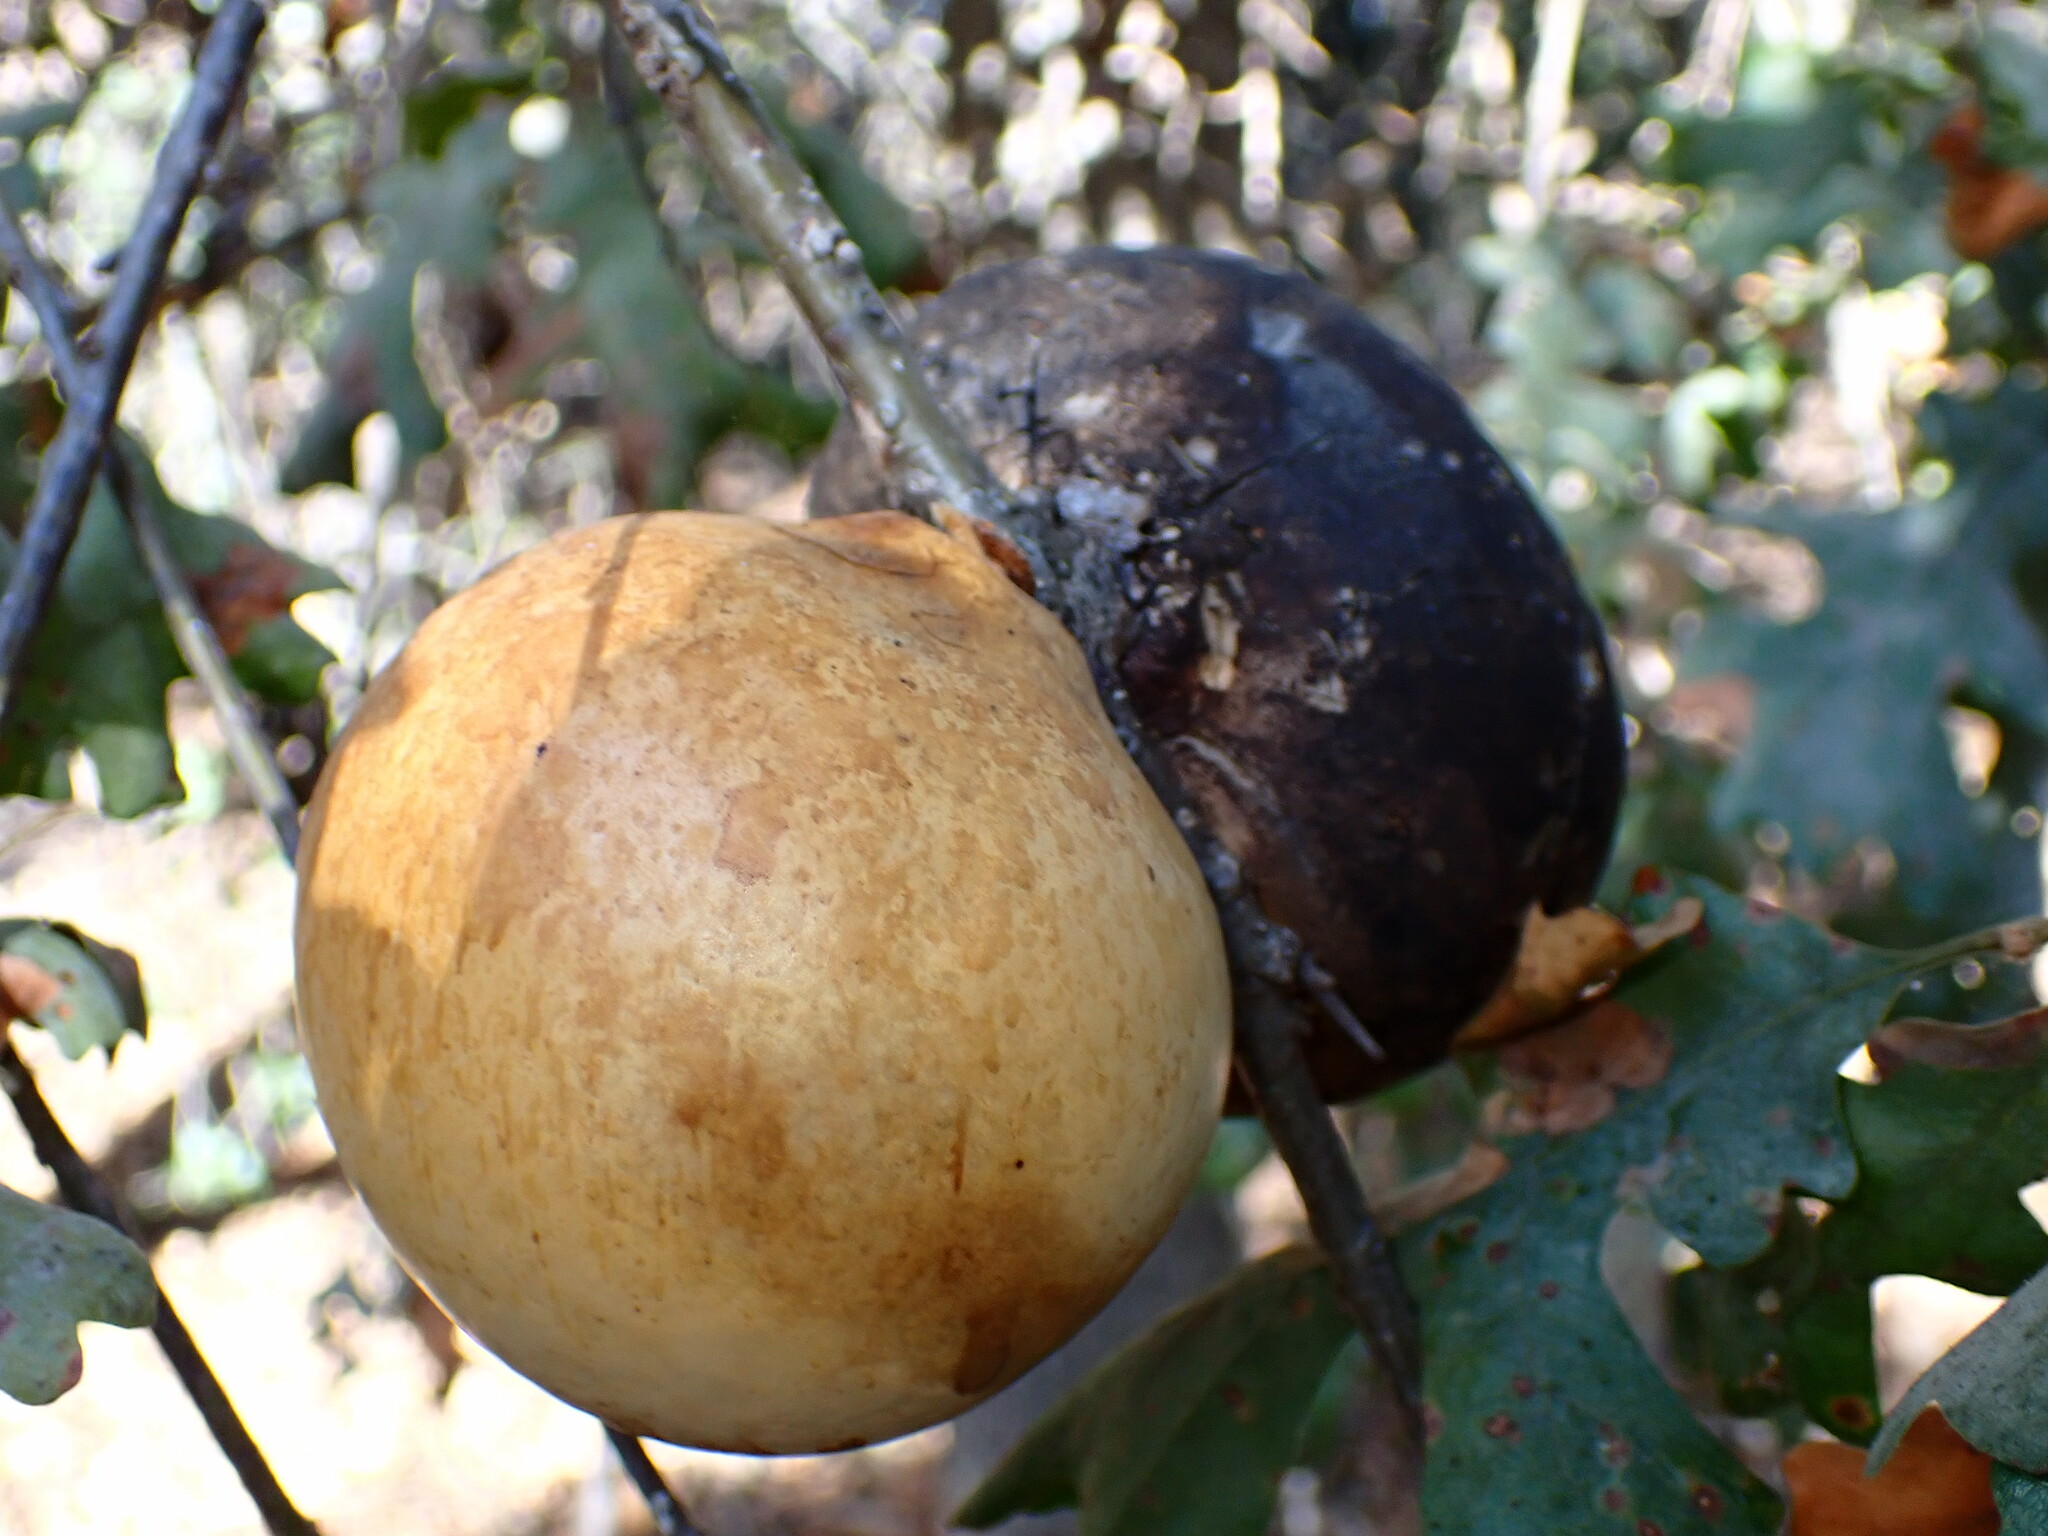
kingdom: Animalia
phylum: Arthropoda
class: Insecta
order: Hymenoptera
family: Cynipidae
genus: Andricus
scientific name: Andricus quercuscalifornicus
